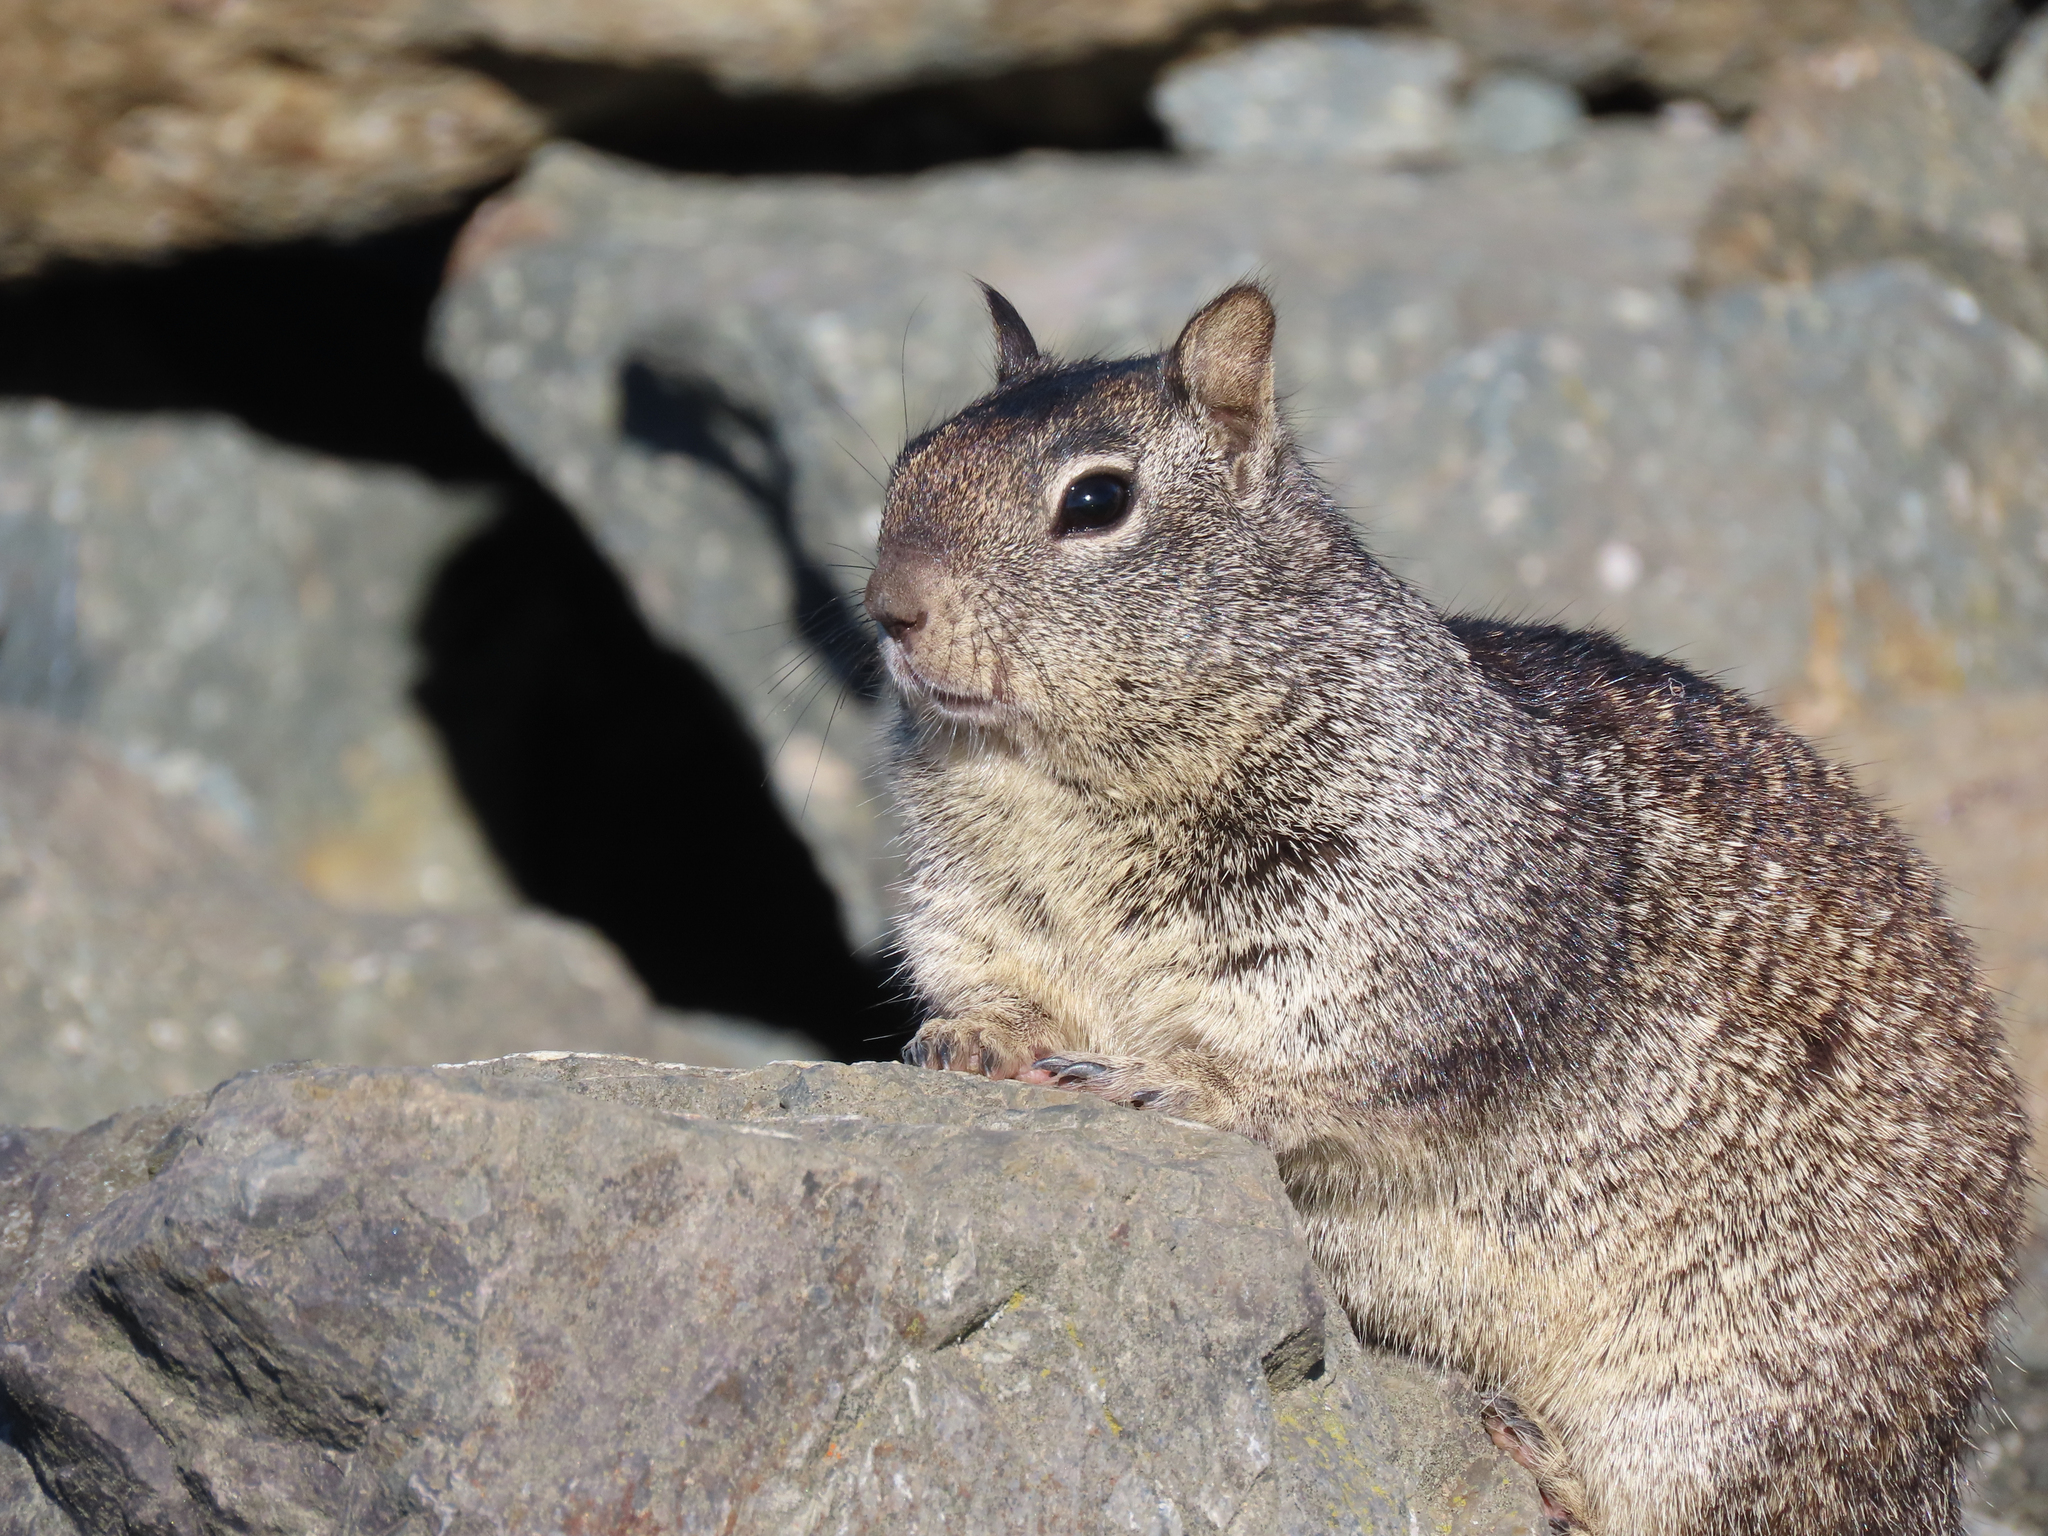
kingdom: Animalia
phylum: Chordata
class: Mammalia
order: Rodentia
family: Sciuridae
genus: Otospermophilus
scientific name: Otospermophilus beecheyi
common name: California ground squirrel
